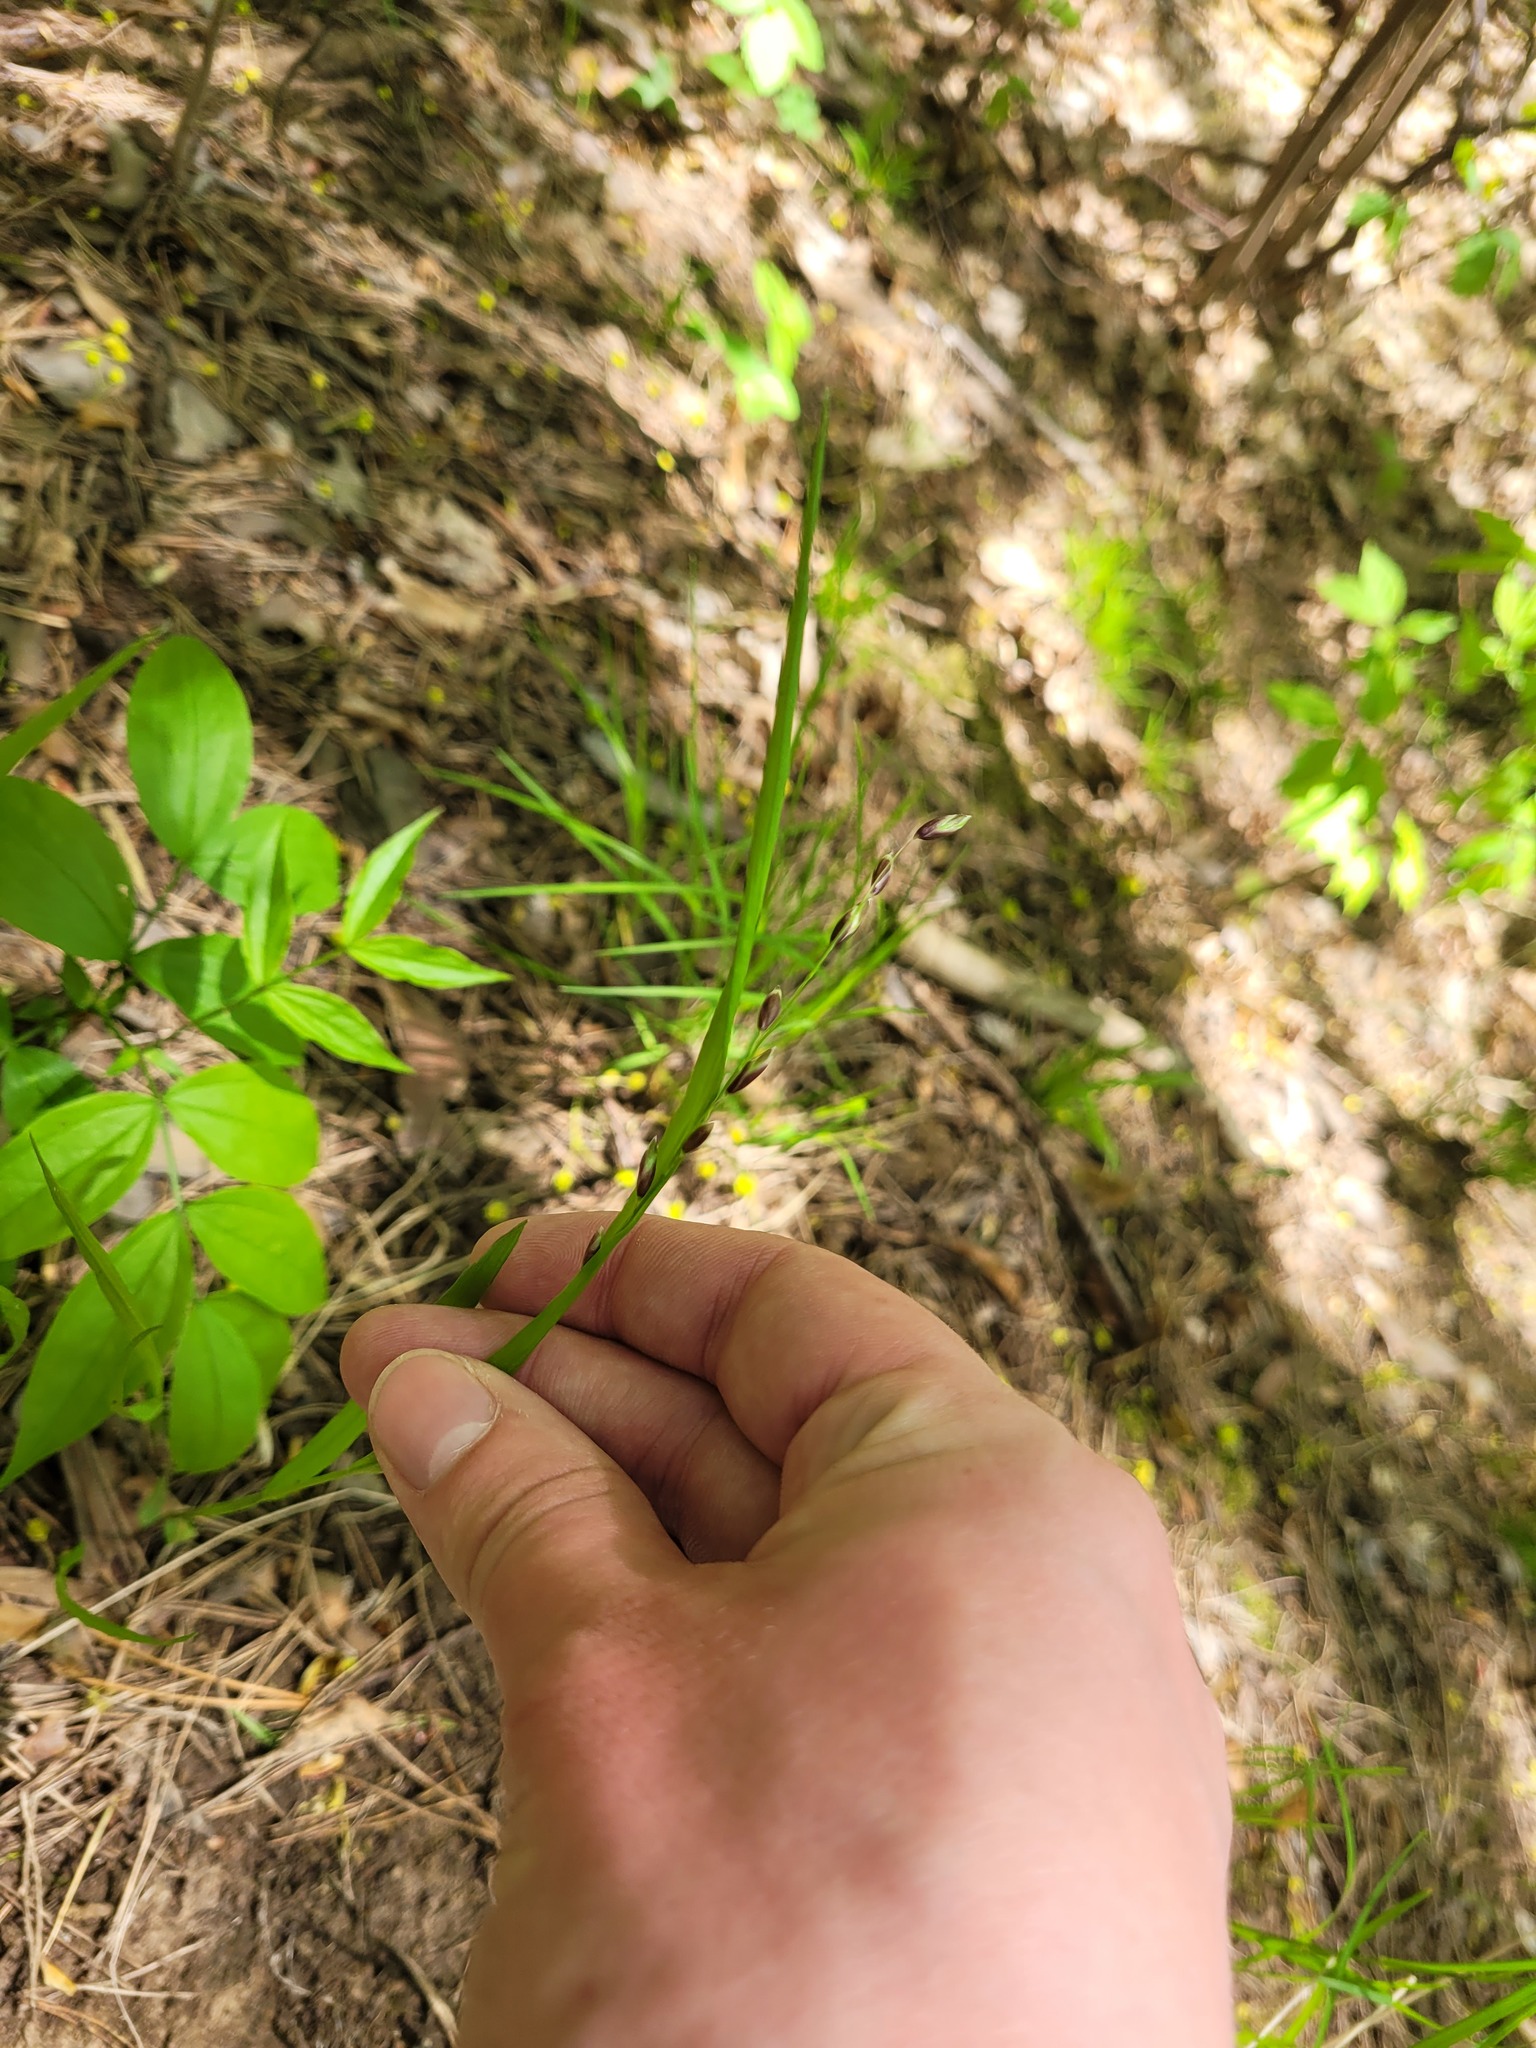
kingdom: Plantae
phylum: Tracheophyta
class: Liliopsida
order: Poales
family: Poaceae
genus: Melica
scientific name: Melica nutans
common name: Mountain melick
